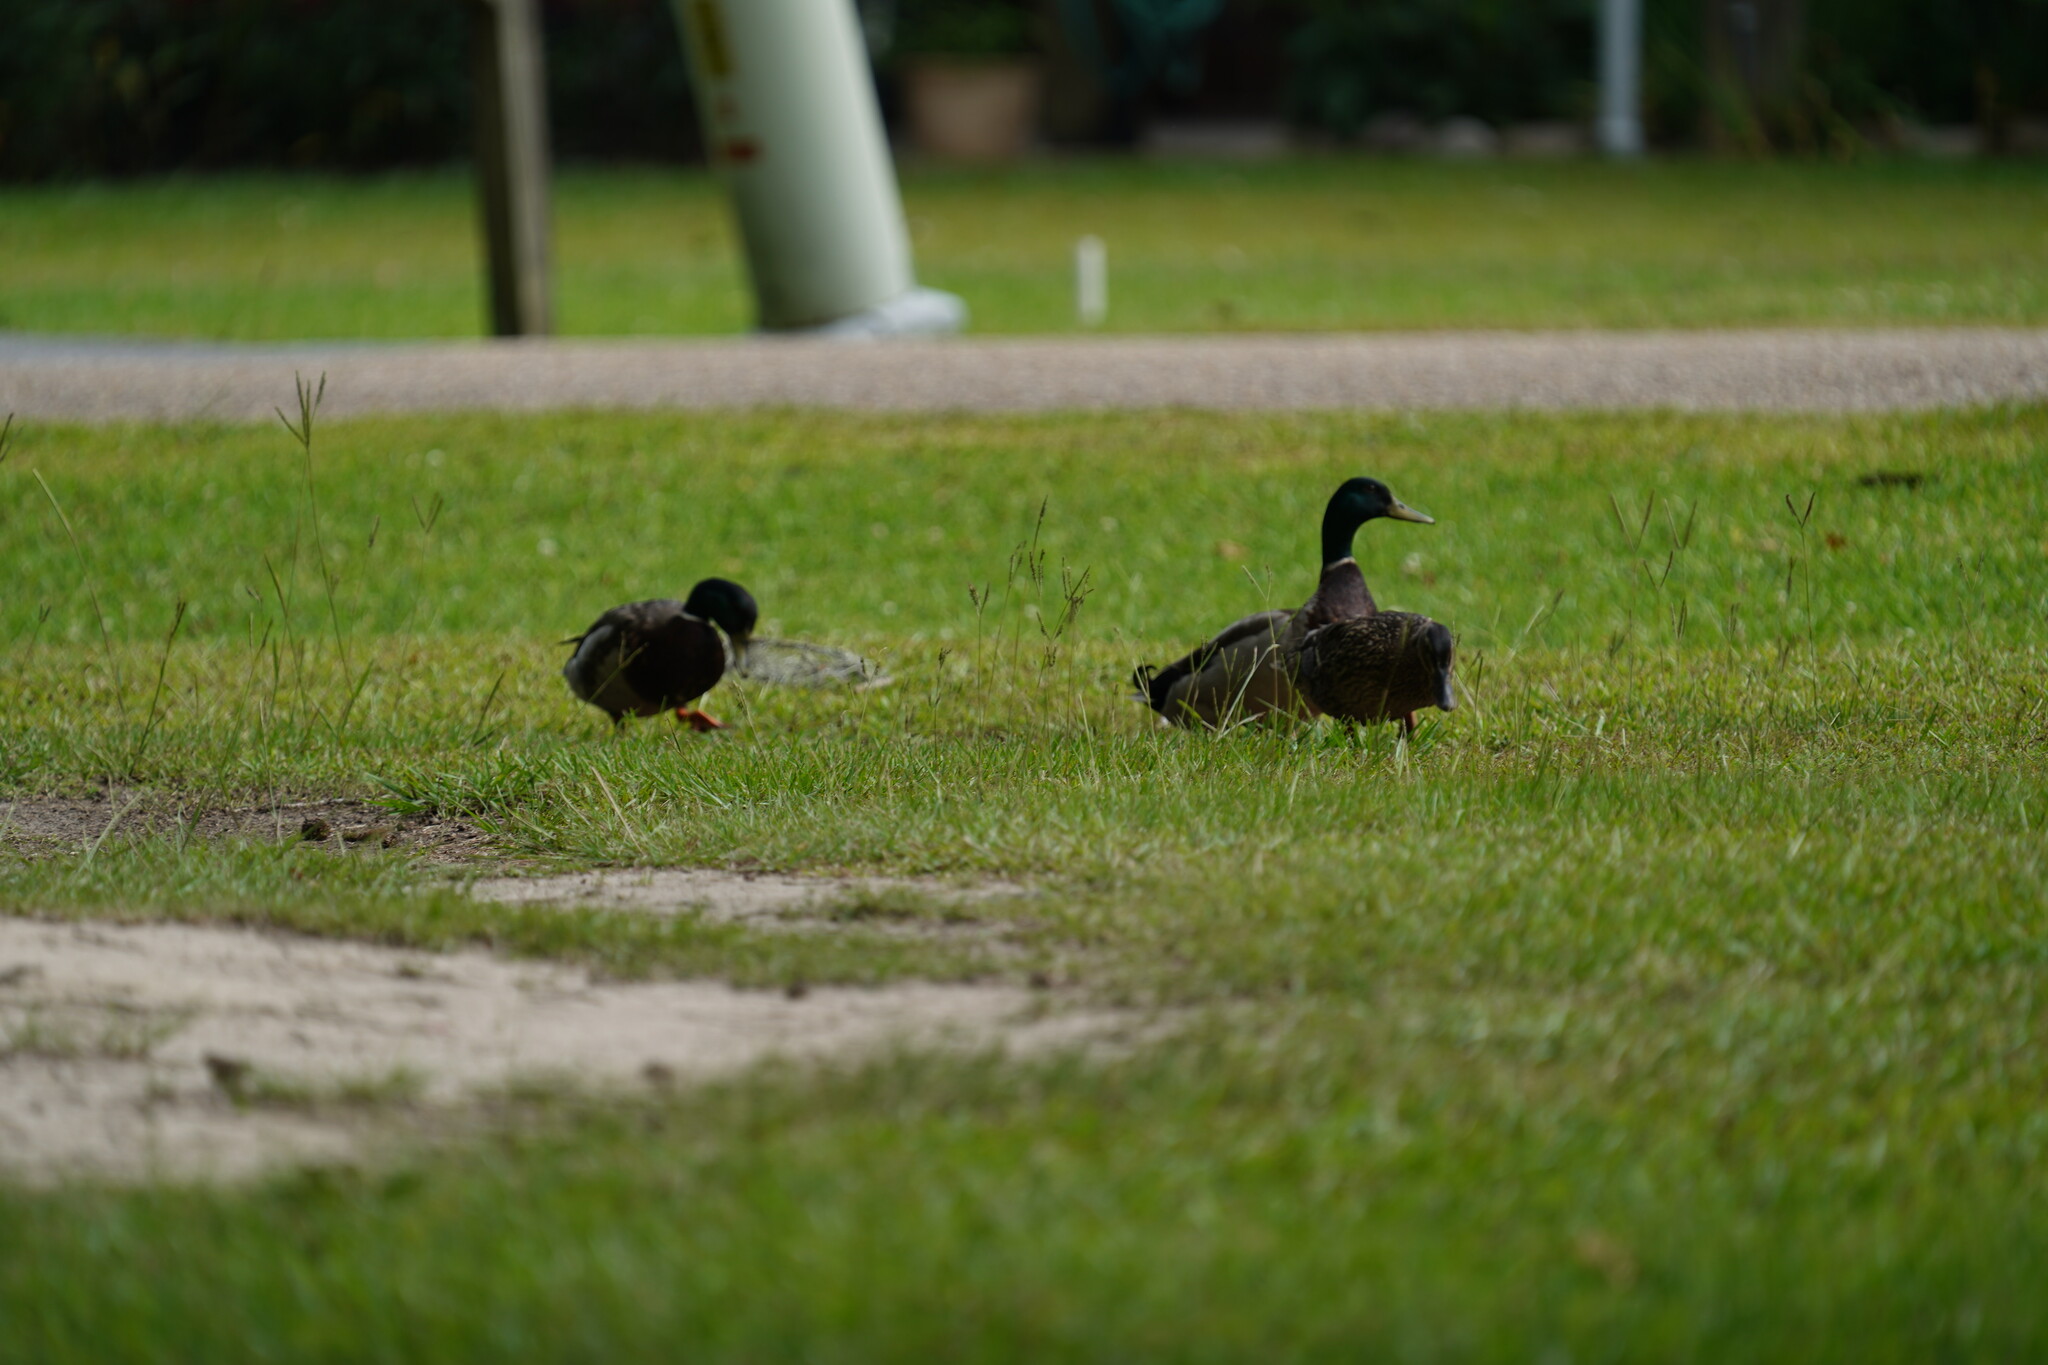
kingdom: Animalia
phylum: Chordata
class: Aves
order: Anseriformes
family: Anatidae
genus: Anas
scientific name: Anas platyrhynchos
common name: Mallard
